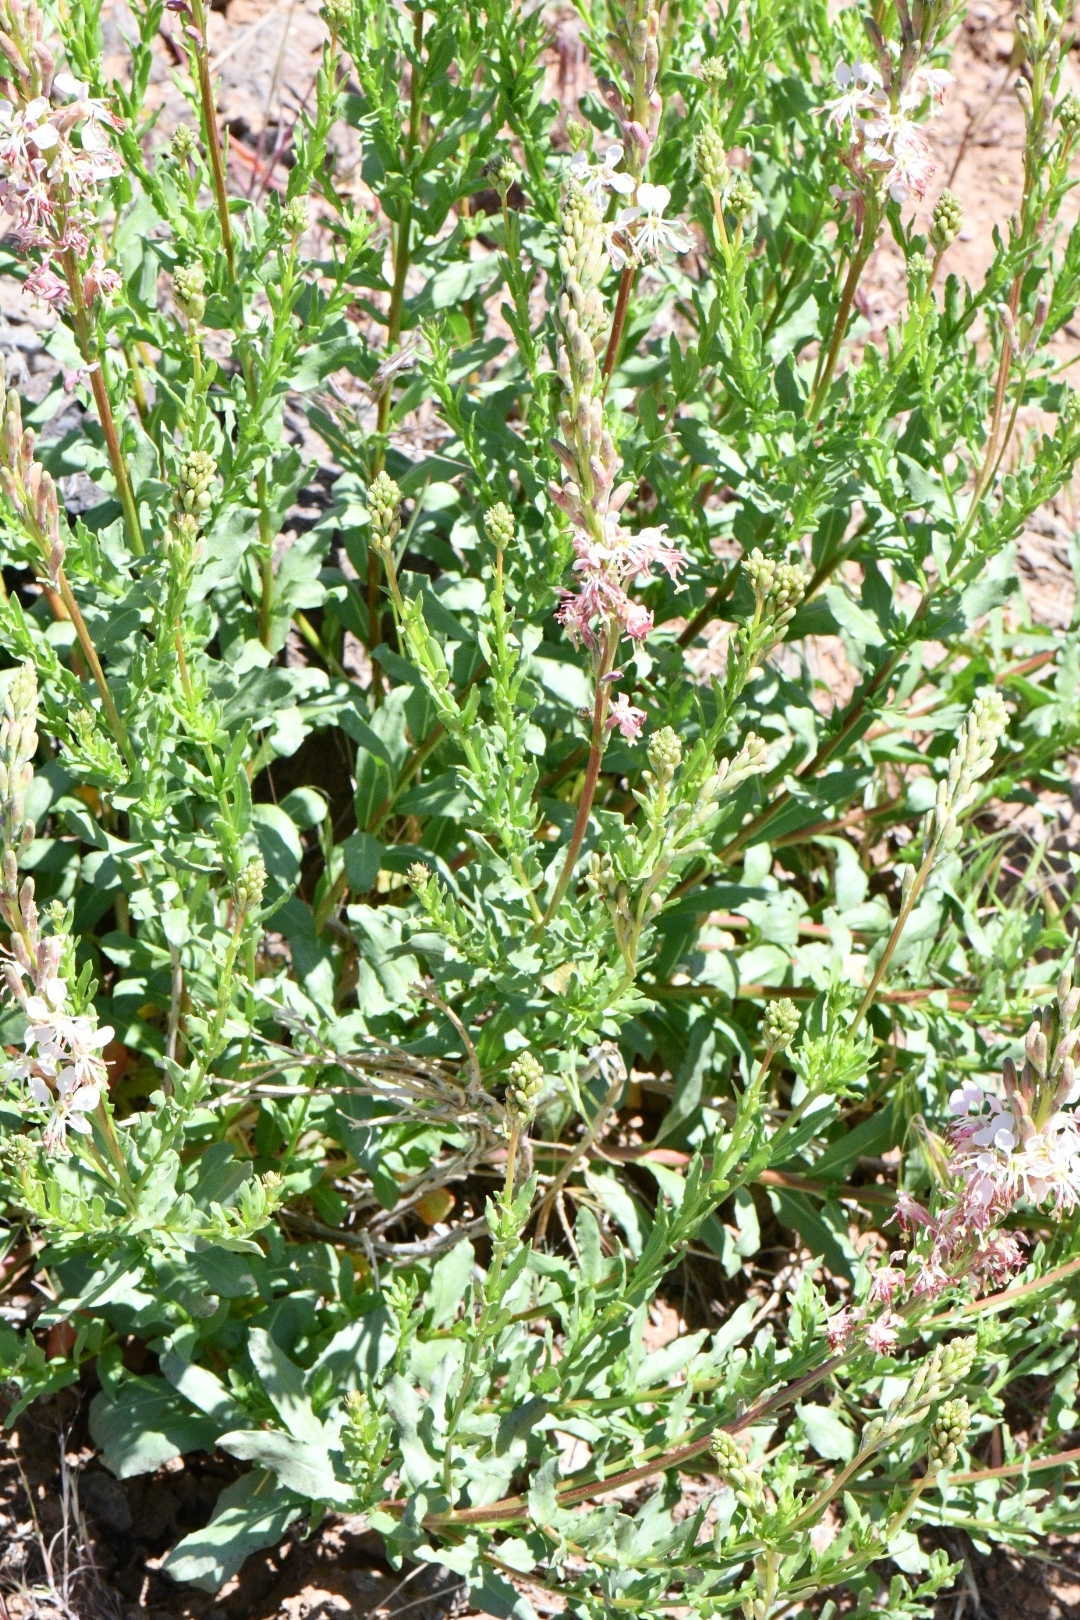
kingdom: Plantae
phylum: Tracheophyta
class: Magnoliopsida
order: Myrtales
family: Onagraceae
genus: Oenothera
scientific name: Oenothera suffrutescens
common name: Scarlet beeblossom
